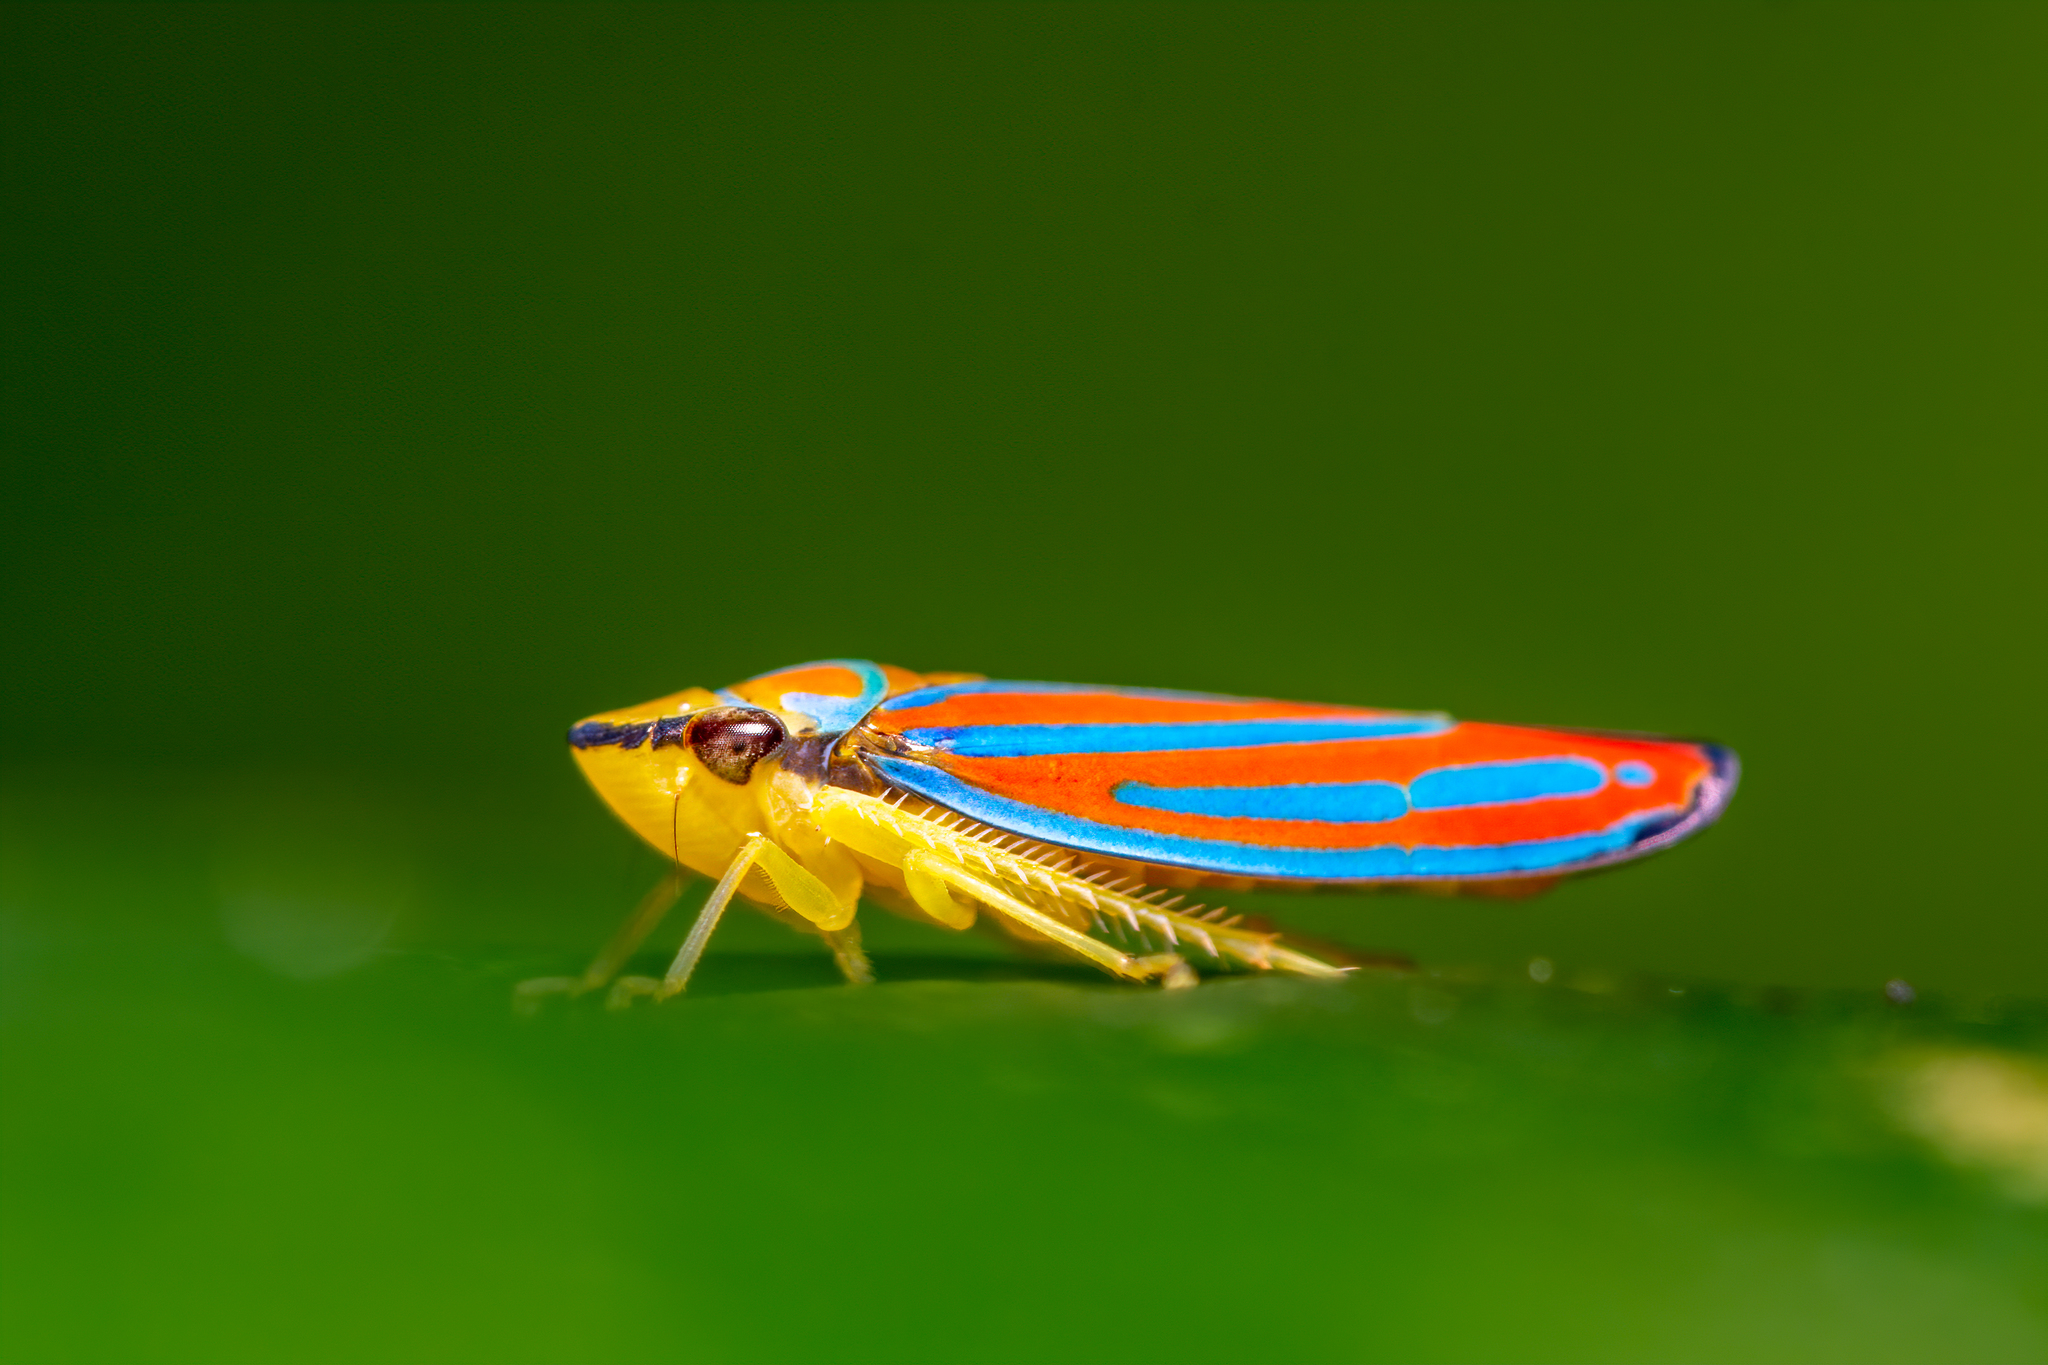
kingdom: Animalia
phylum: Arthropoda
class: Insecta
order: Hemiptera
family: Cicadellidae
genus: Graphocephala
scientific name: Graphocephala coccinea
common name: Candy-striped leafhopper
